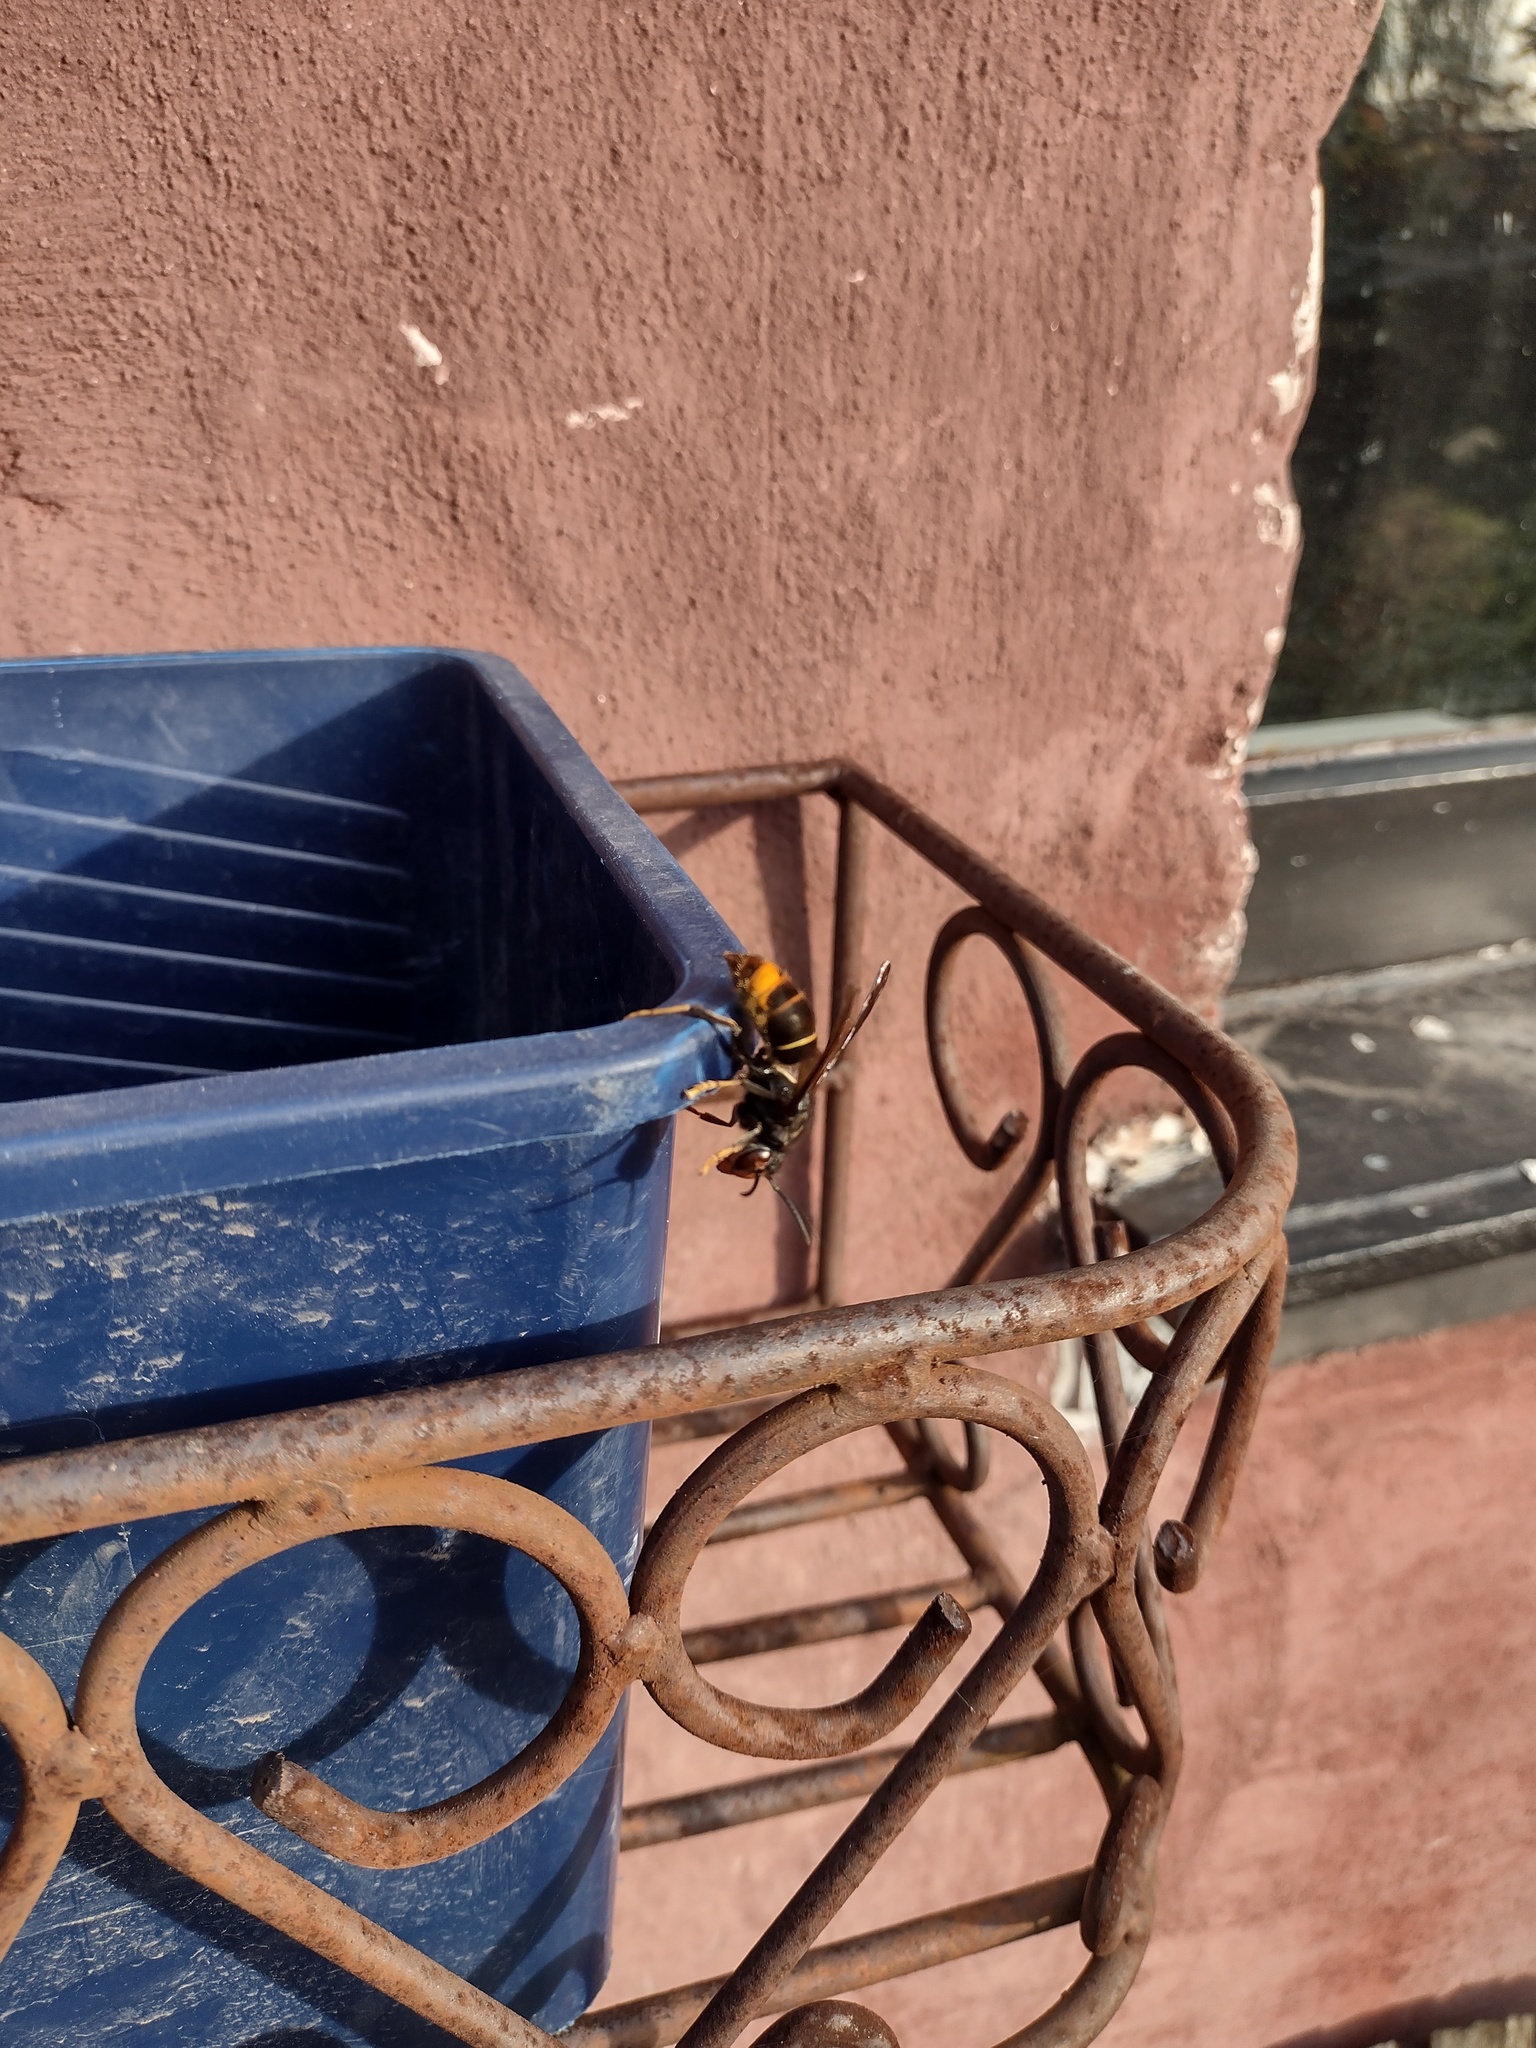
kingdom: Animalia
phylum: Arthropoda
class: Insecta
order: Hymenoptera
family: Vespidae
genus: Vespa
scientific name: Vespa velutina
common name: Asian hornet
